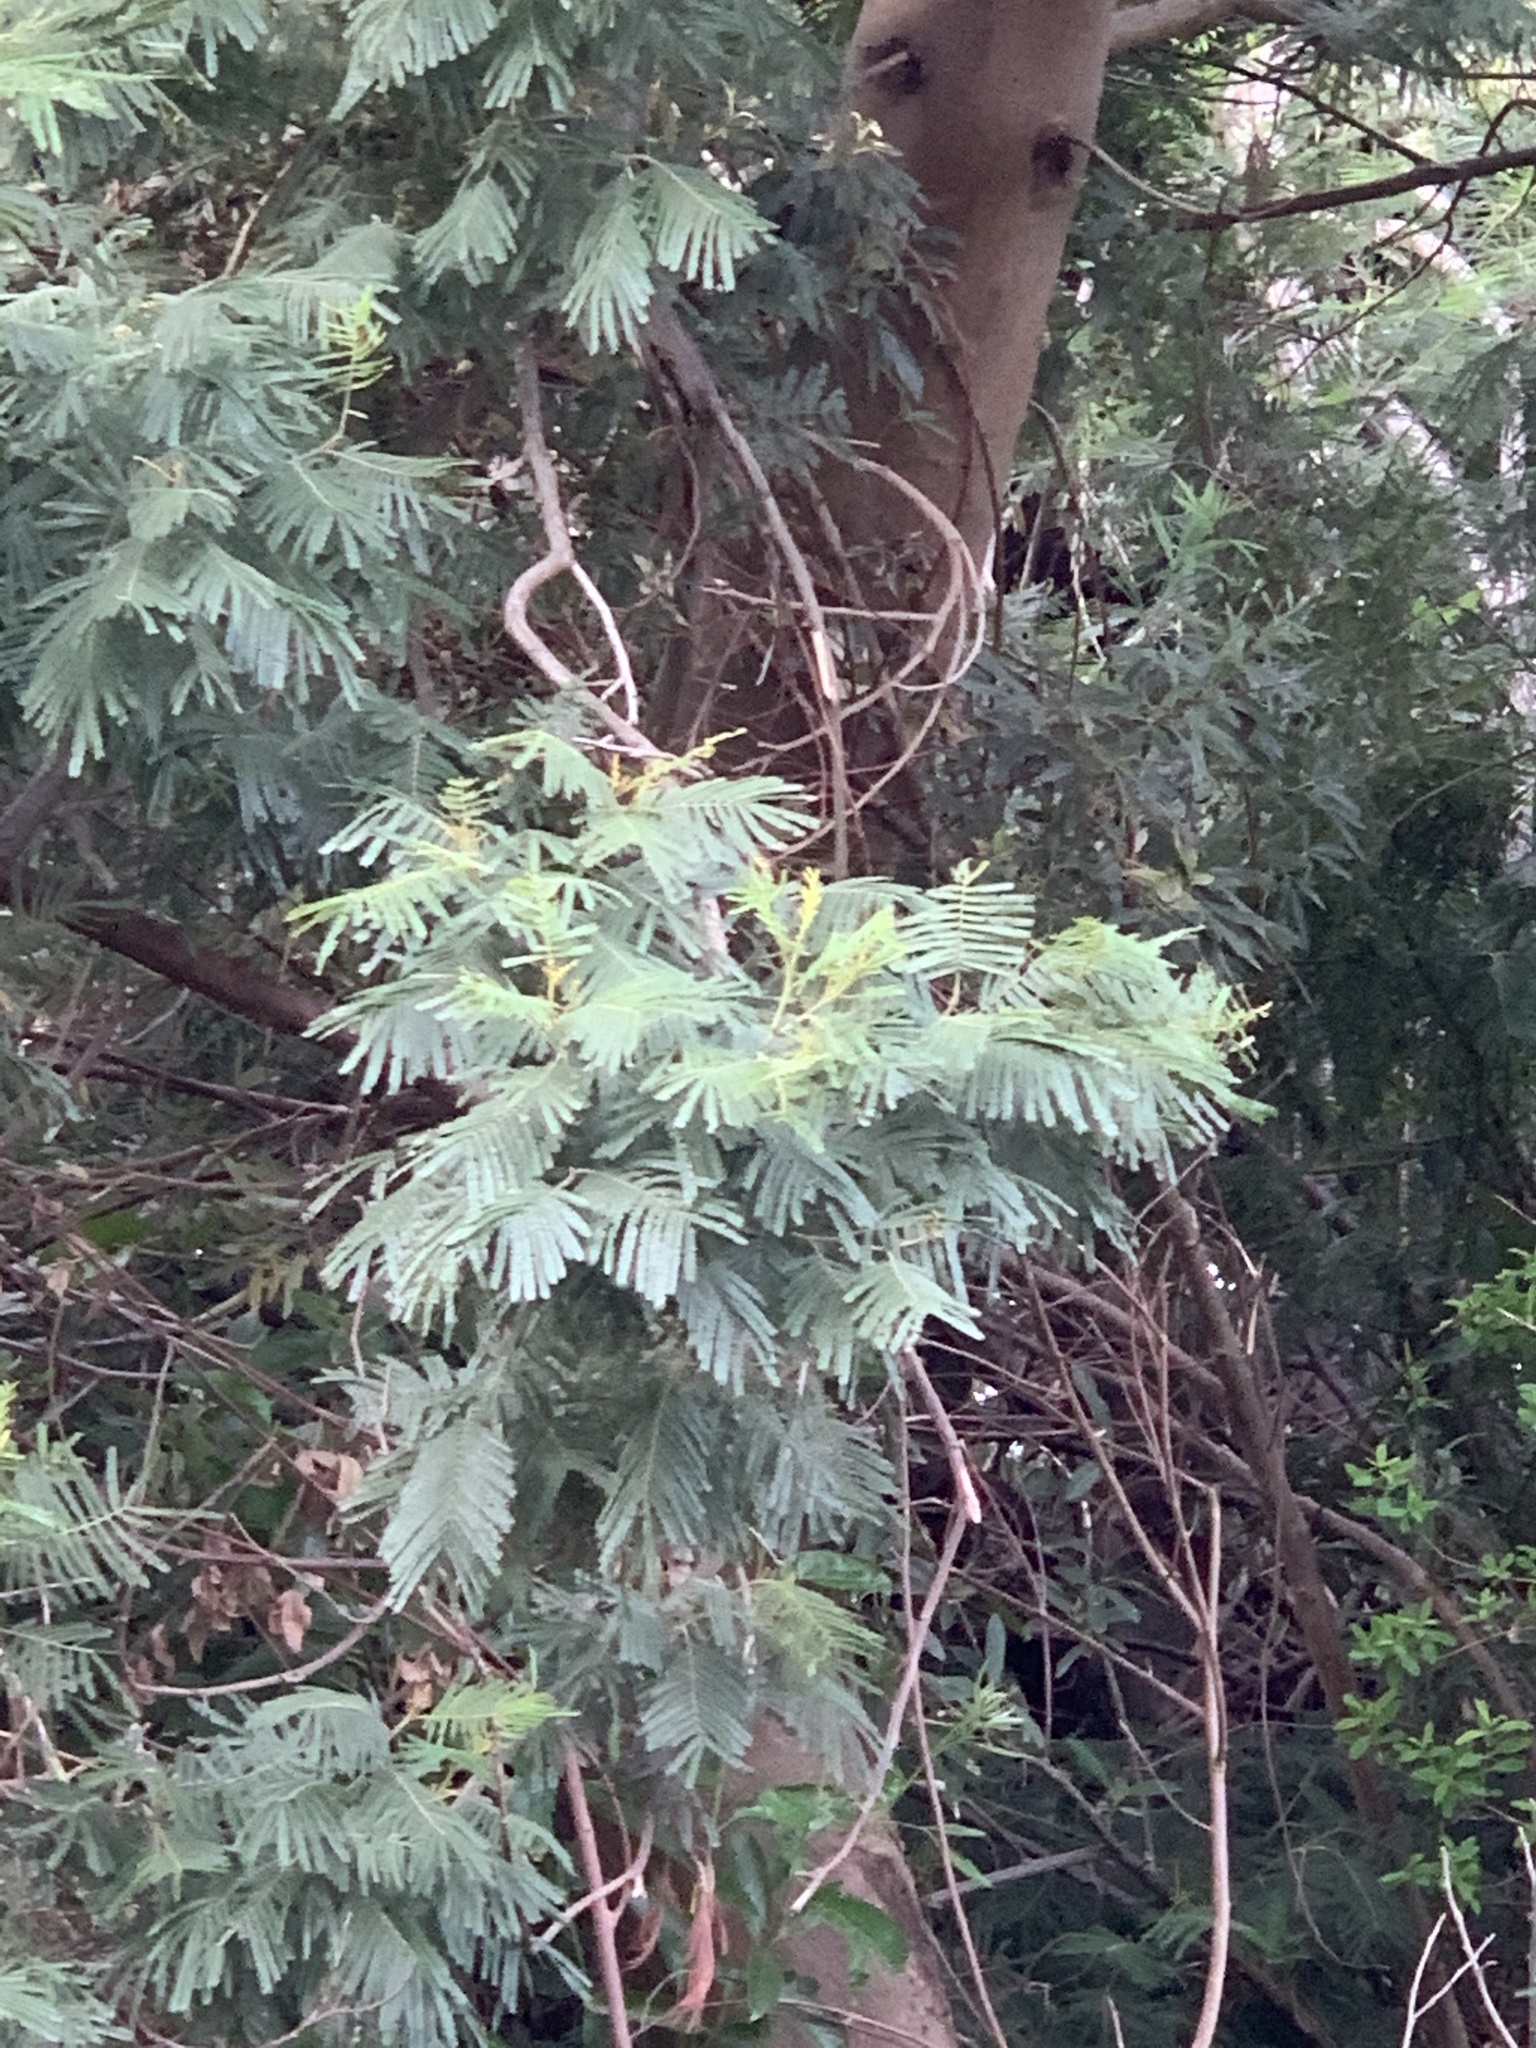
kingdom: Plantae
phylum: Tracheophyta
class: Magnoliopsida
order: Fabales
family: Fabaceae
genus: Acacia
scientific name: Acacia mearnsii
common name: Black wattle
